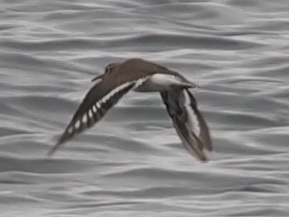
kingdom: Animalia
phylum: Chordata
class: Aves
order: Charadriiformes
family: Scolopacidae
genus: Actitis
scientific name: Actitis hypoleucos
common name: Common sandpiper
